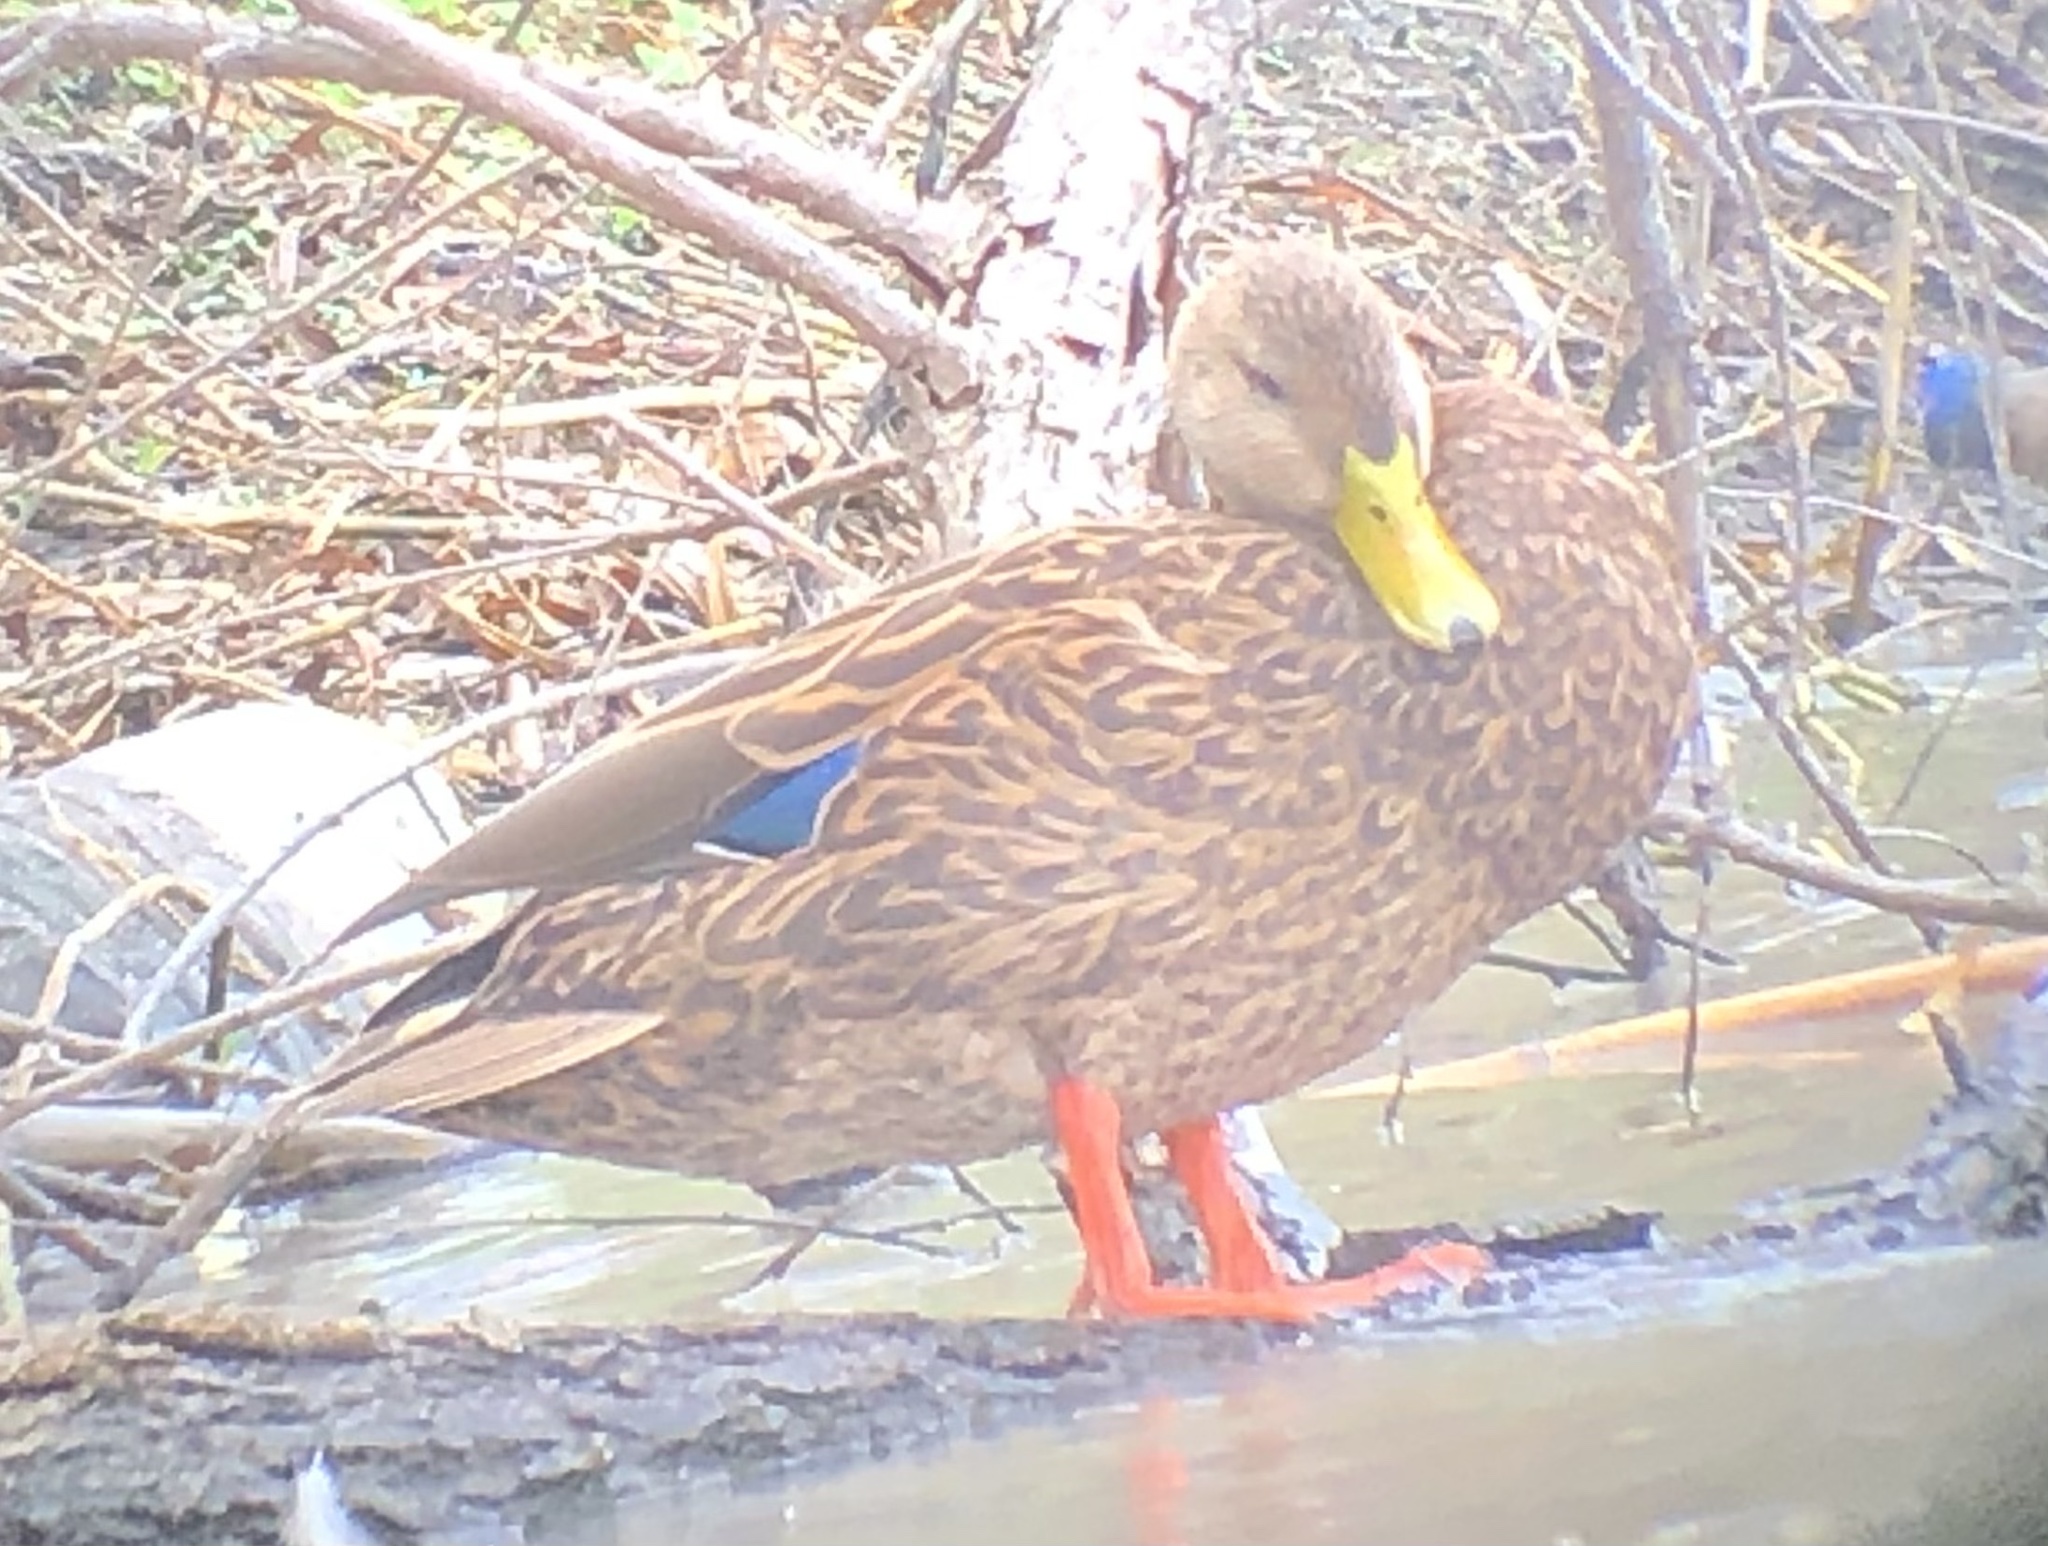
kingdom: Animalia
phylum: Chordata
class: Aves
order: Anseriformes
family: Anatidae
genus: Anas
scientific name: Anas diazi
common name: Mexican duck
